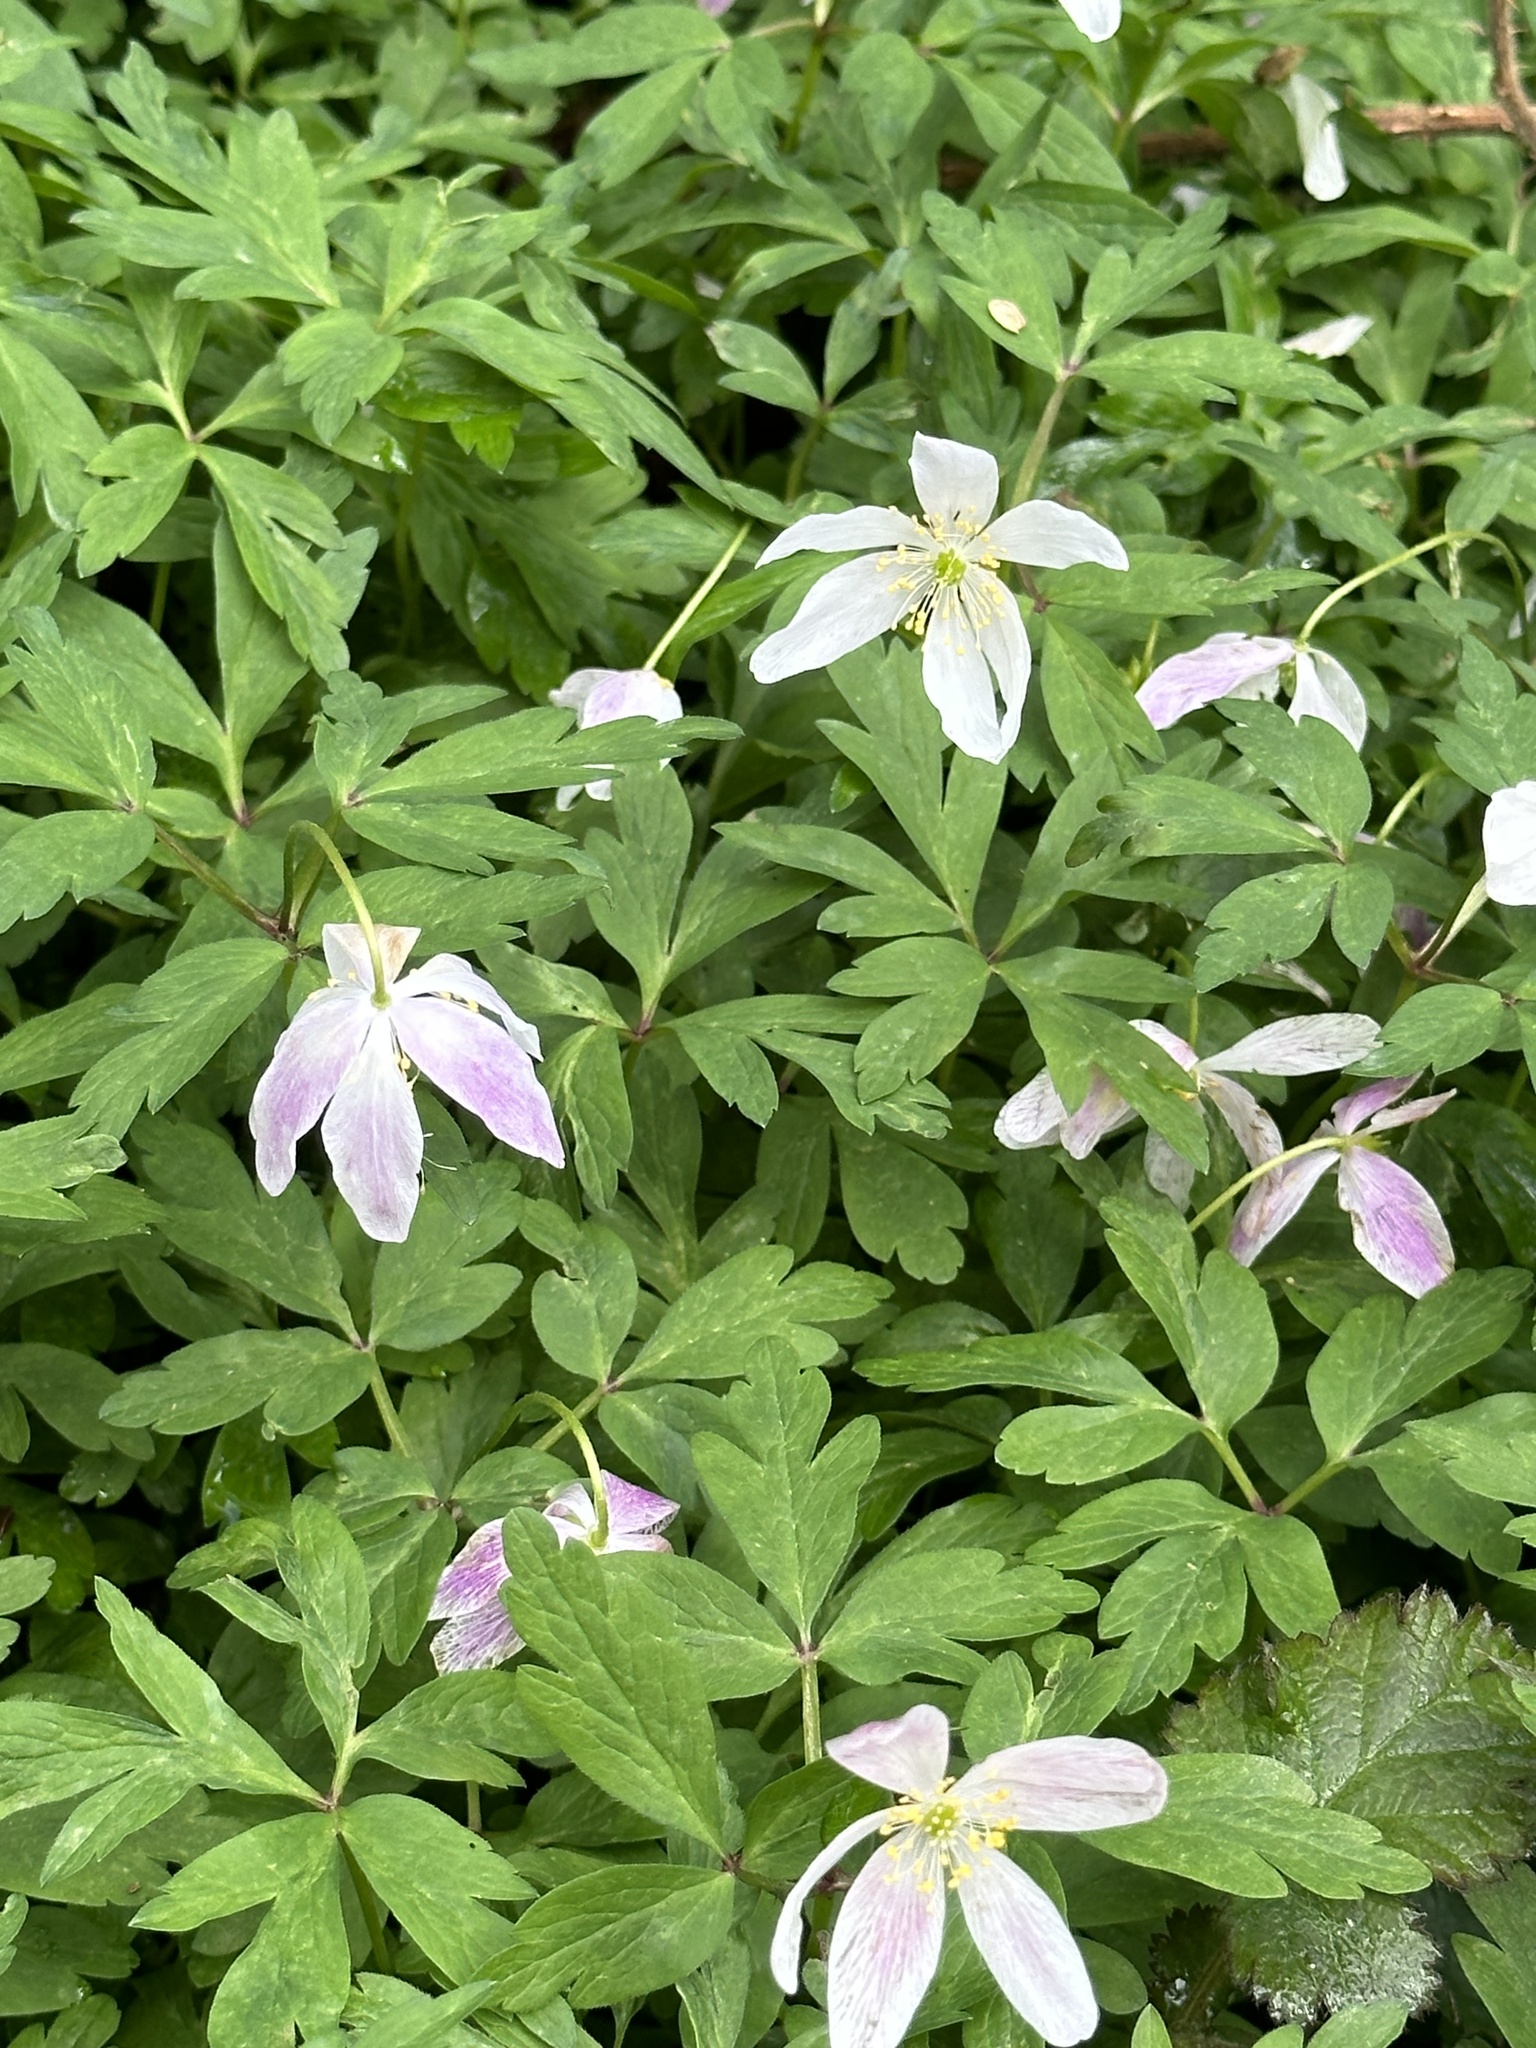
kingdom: Plantae
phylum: Tracheophyta
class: Magnoliopsida
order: Ranunculales
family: Ranunculaceae
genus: Anemone
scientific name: Anemone nemorosa
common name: Wood anemone
